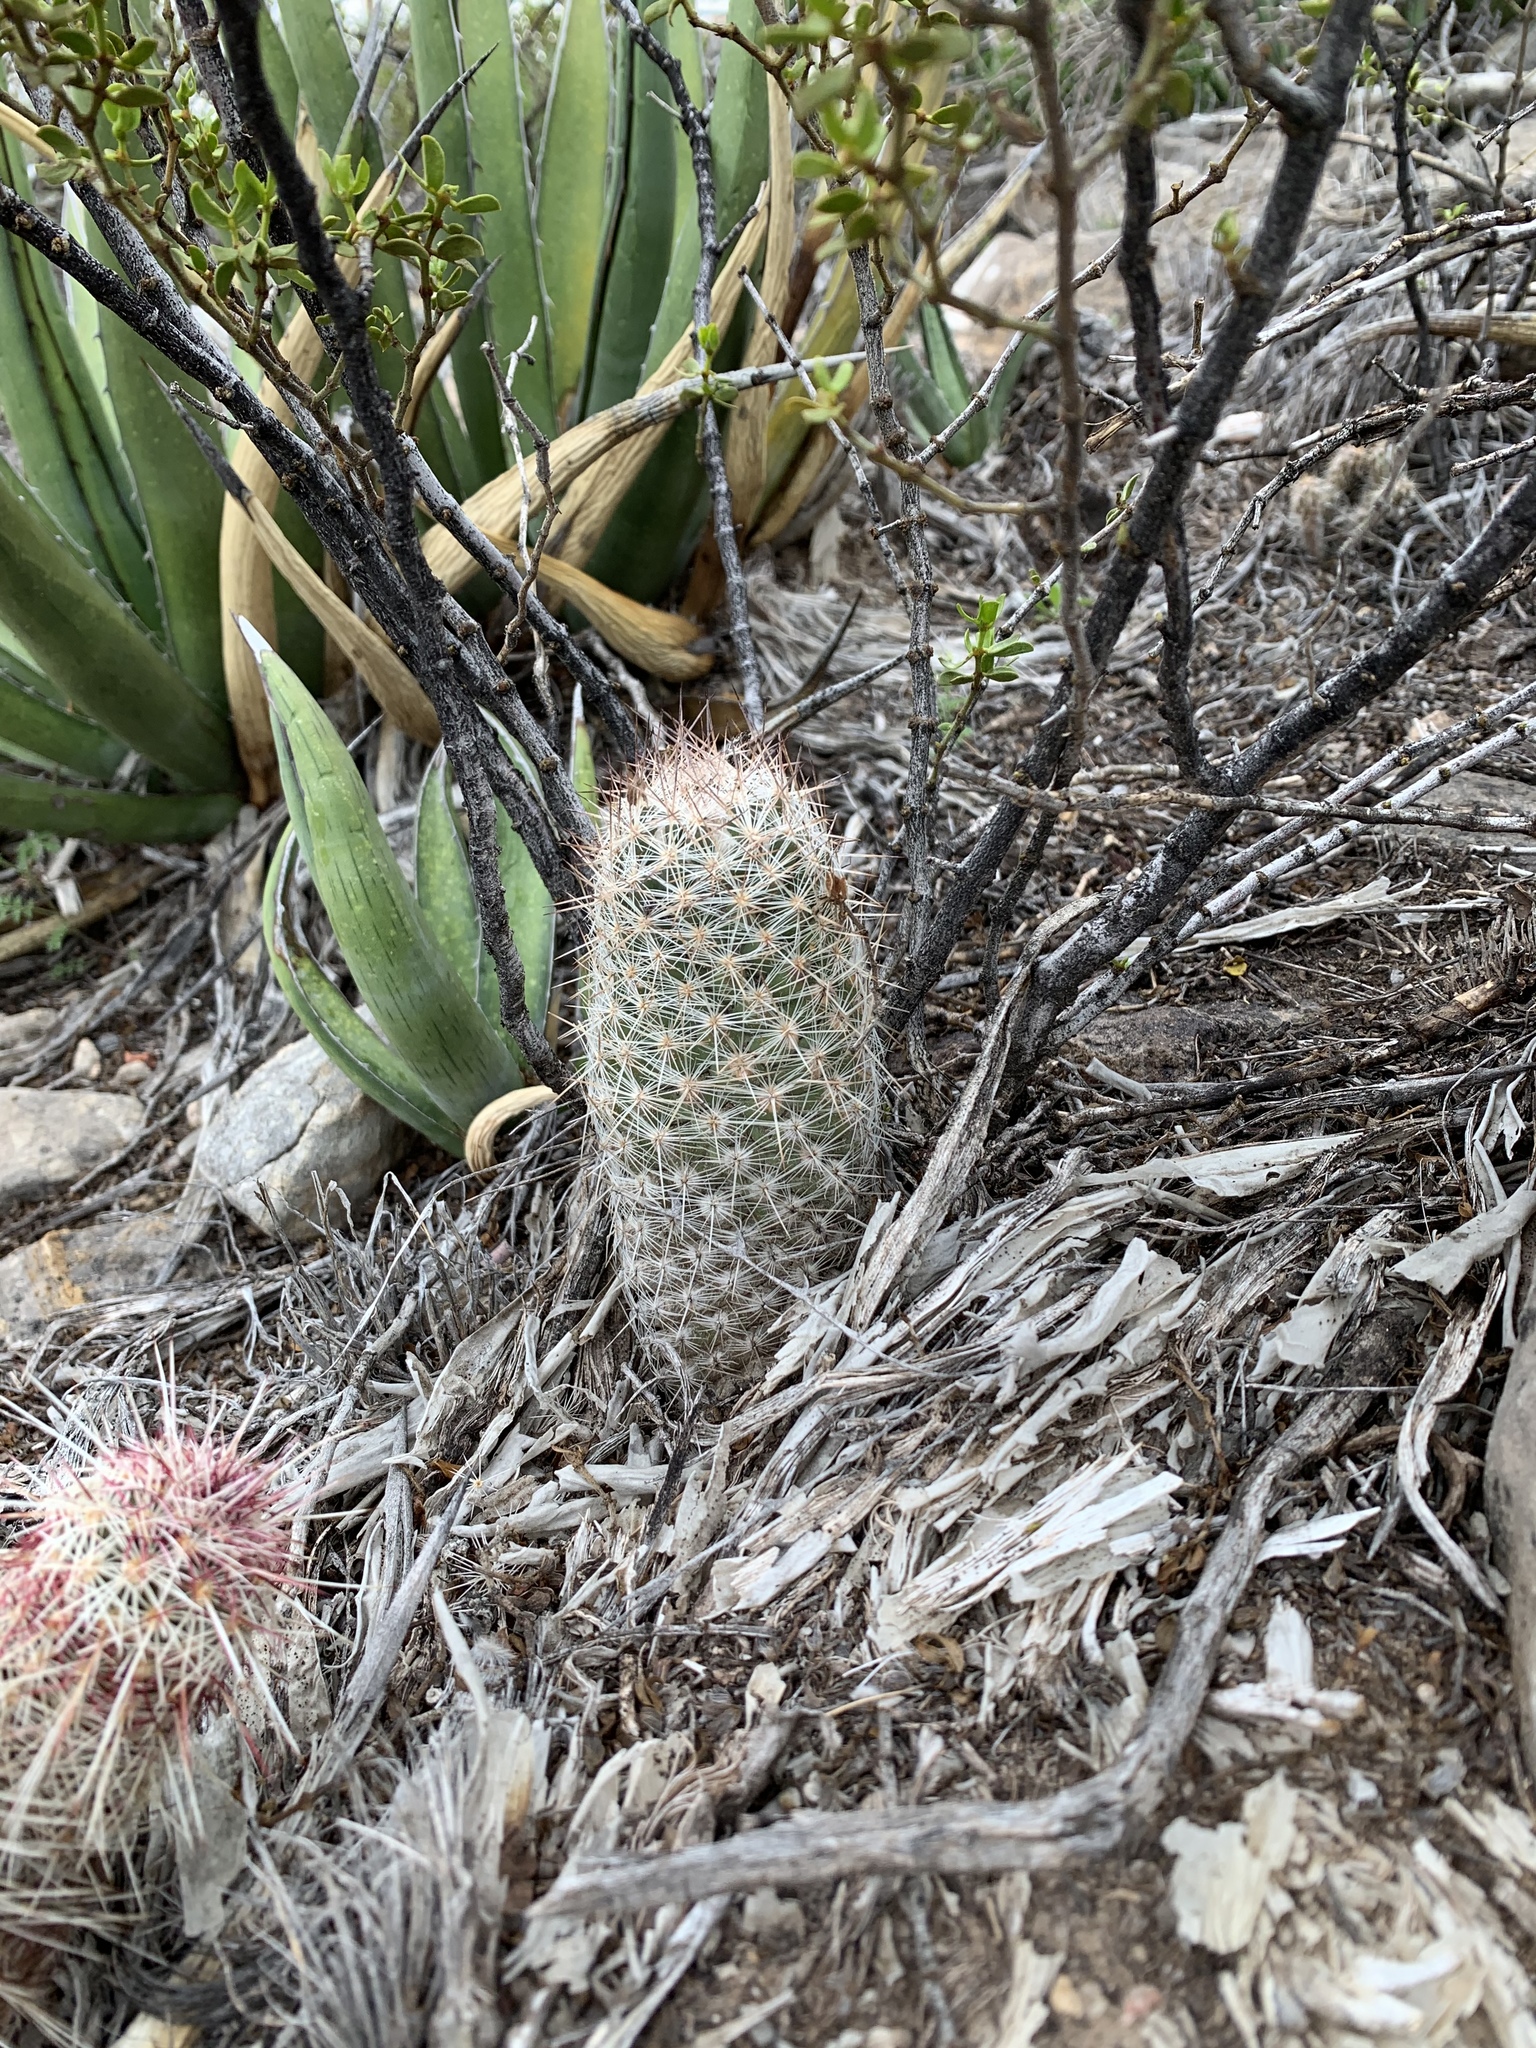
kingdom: Plantae
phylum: Tracheophyta
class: Magnoliopsida
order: Caryophyllales
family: Cactaceae
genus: Pelecyphora
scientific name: Pelecyphora tuberculosa
